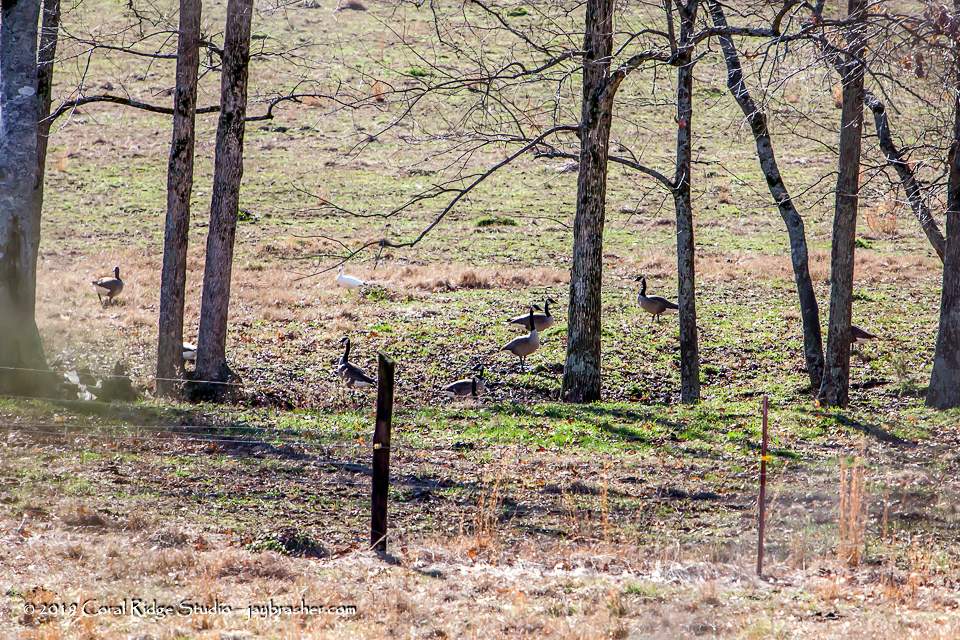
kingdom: Animalia
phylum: Chordata
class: Aves
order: Anseriformes
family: Anatidae
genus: Branta
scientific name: Branta canadensis
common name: Canada goose
